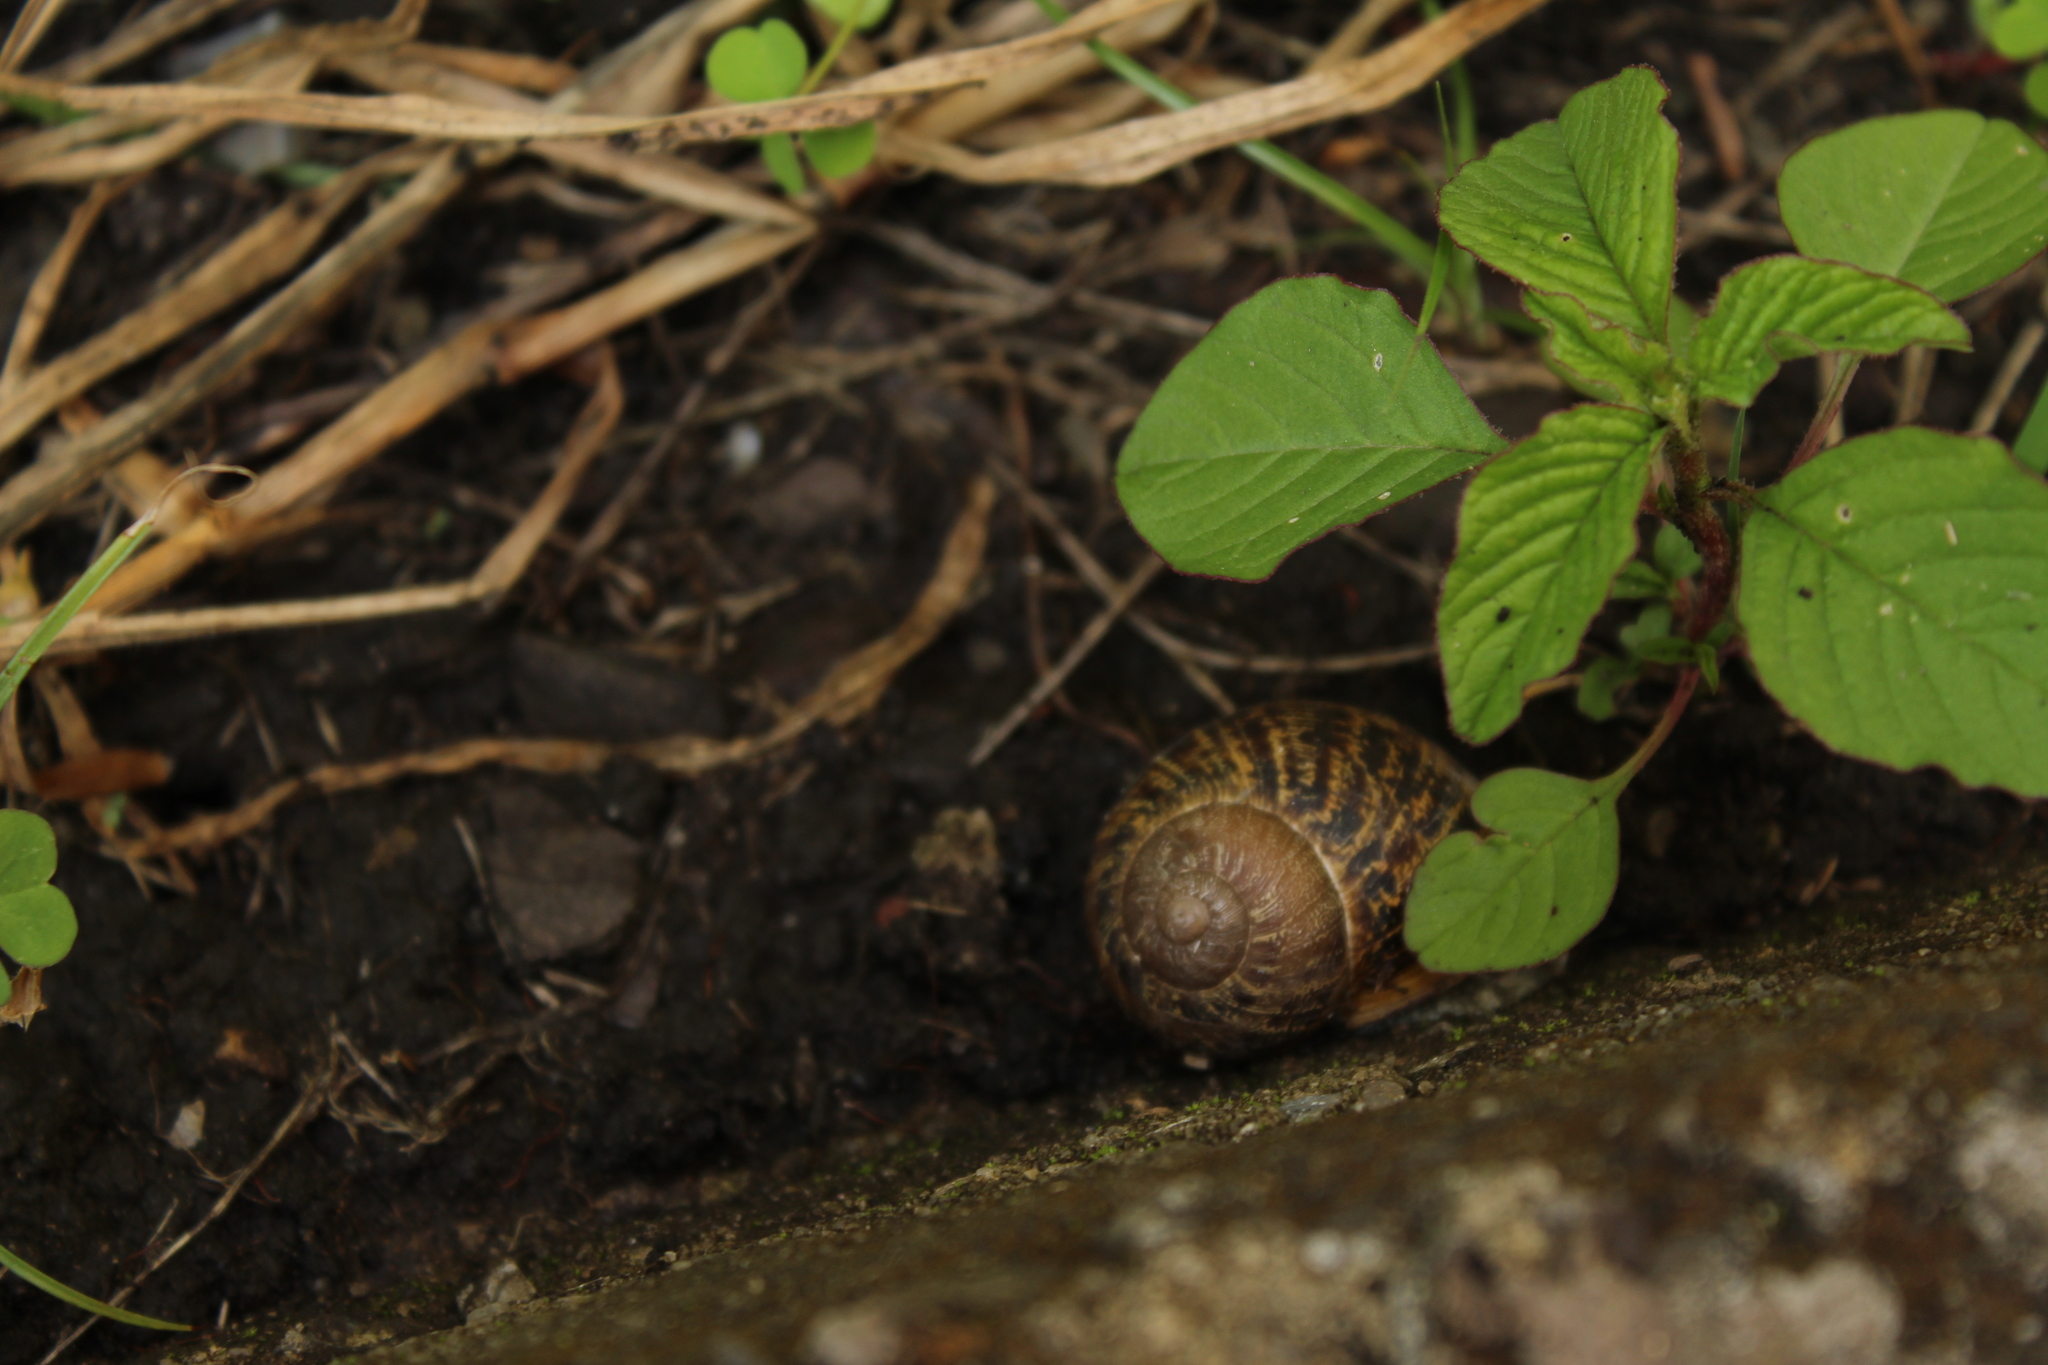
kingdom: Animalia
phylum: Mollusca
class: Gastropoda
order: Stylommatophora
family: Helicidae
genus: Cornu
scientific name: Cornu aspersum
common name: Brown garden snail
